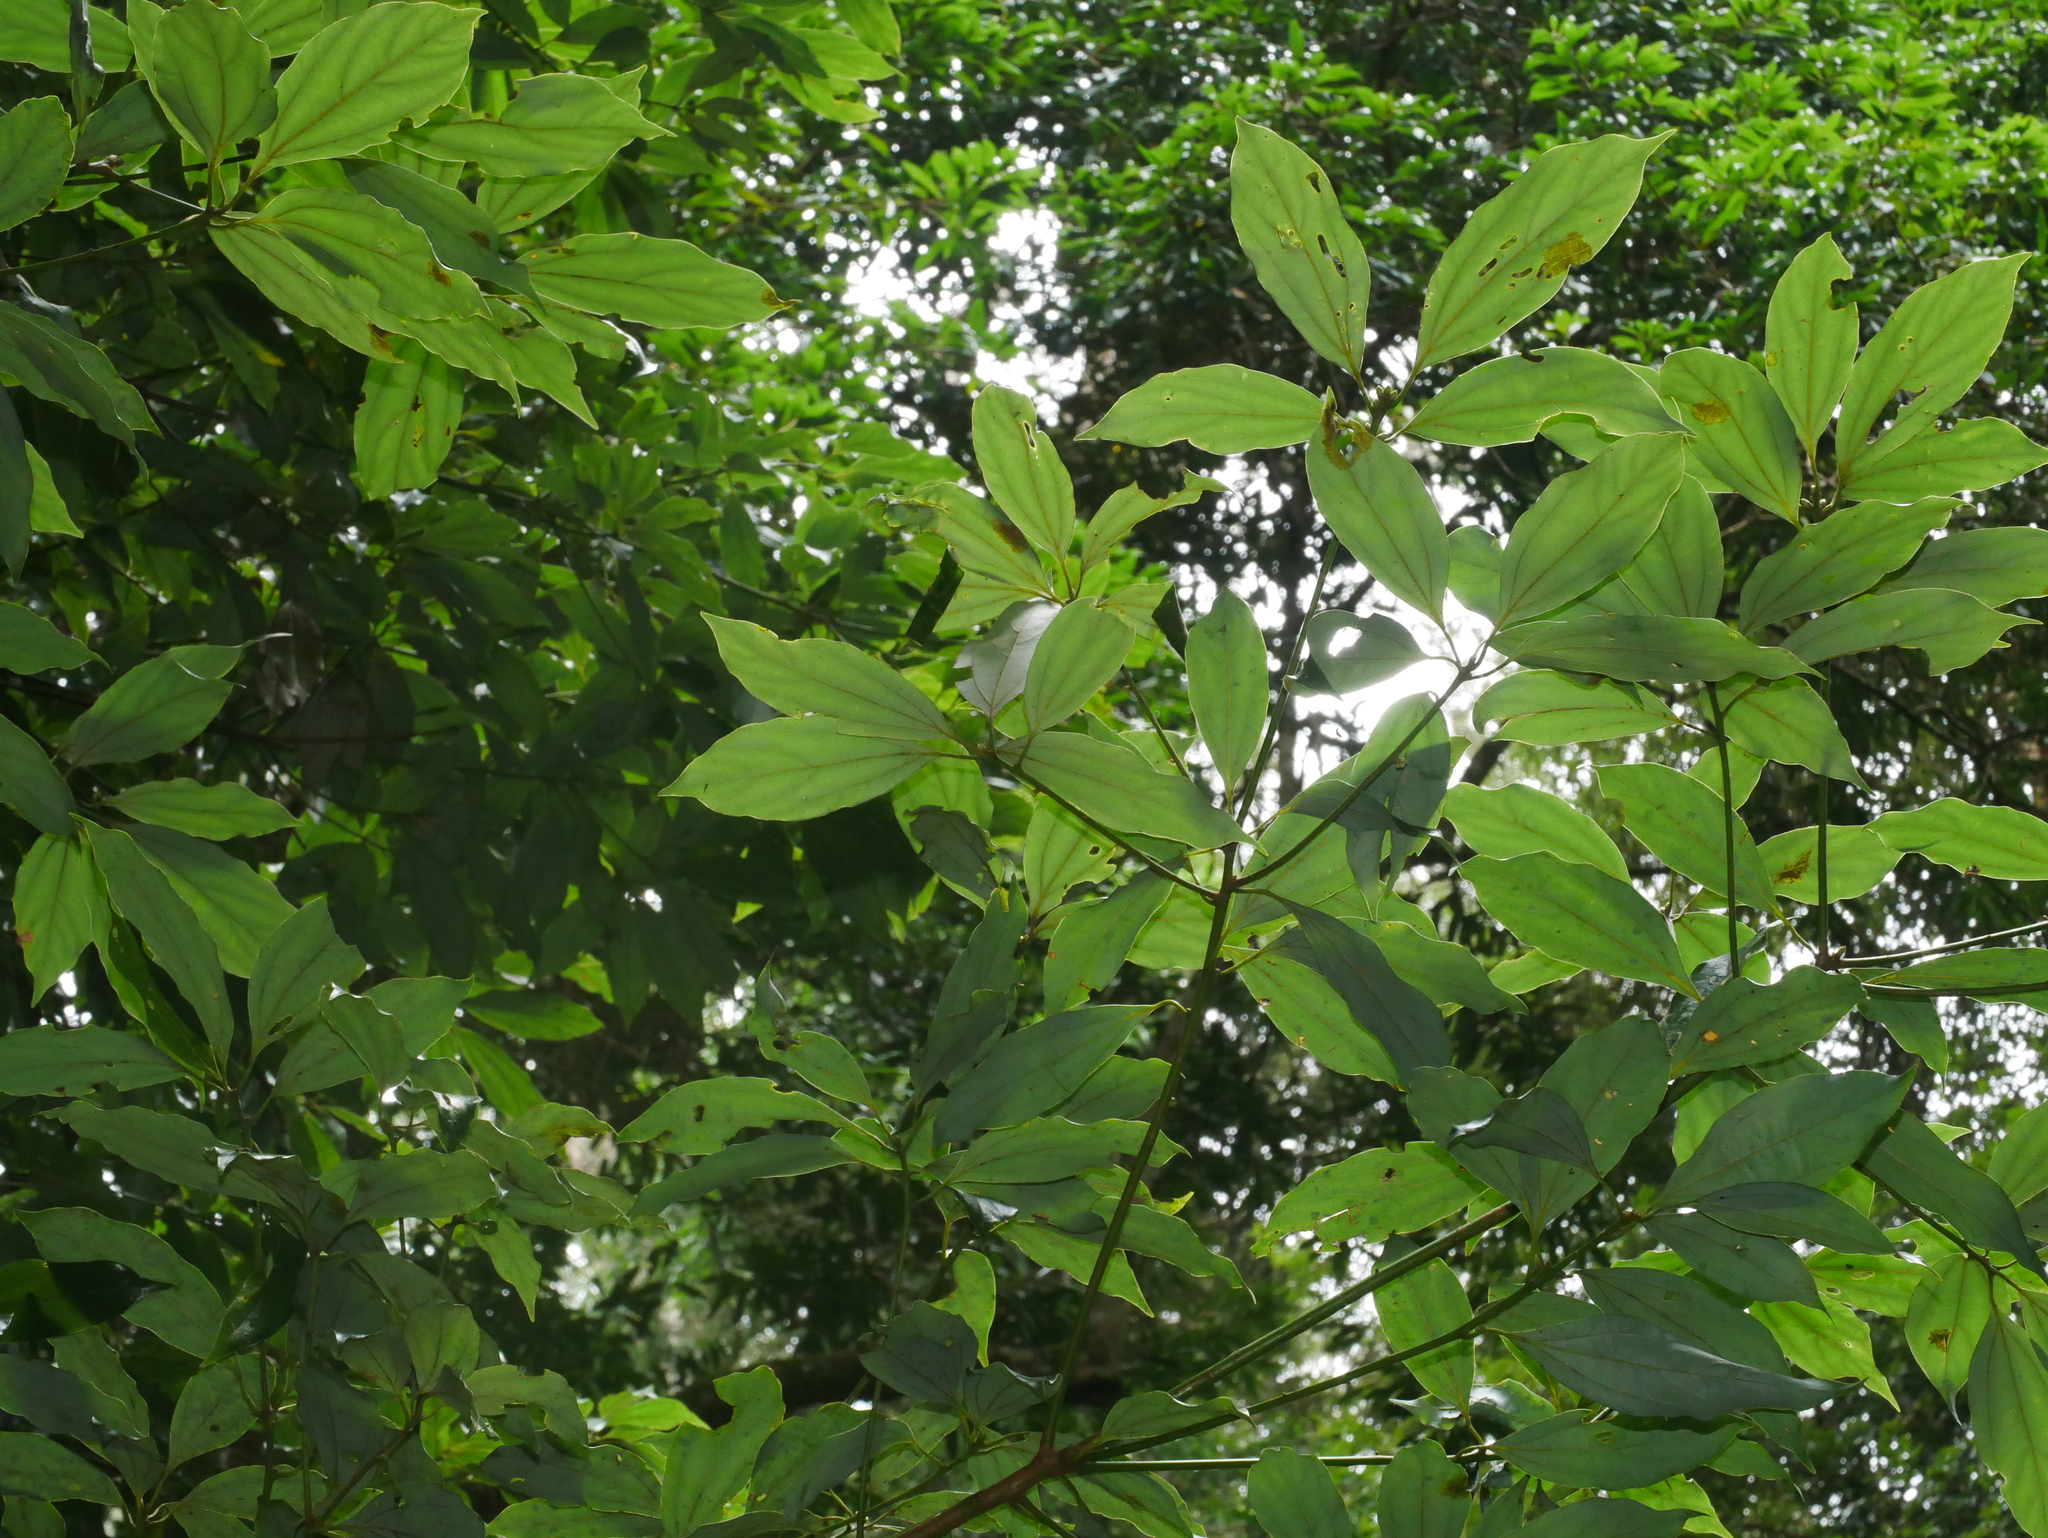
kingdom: Plantae
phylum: Tracheophyta
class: Magnoliopsida
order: Laurales
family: Lauraceae
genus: Neolitsea
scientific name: Neolitsea variabillima
